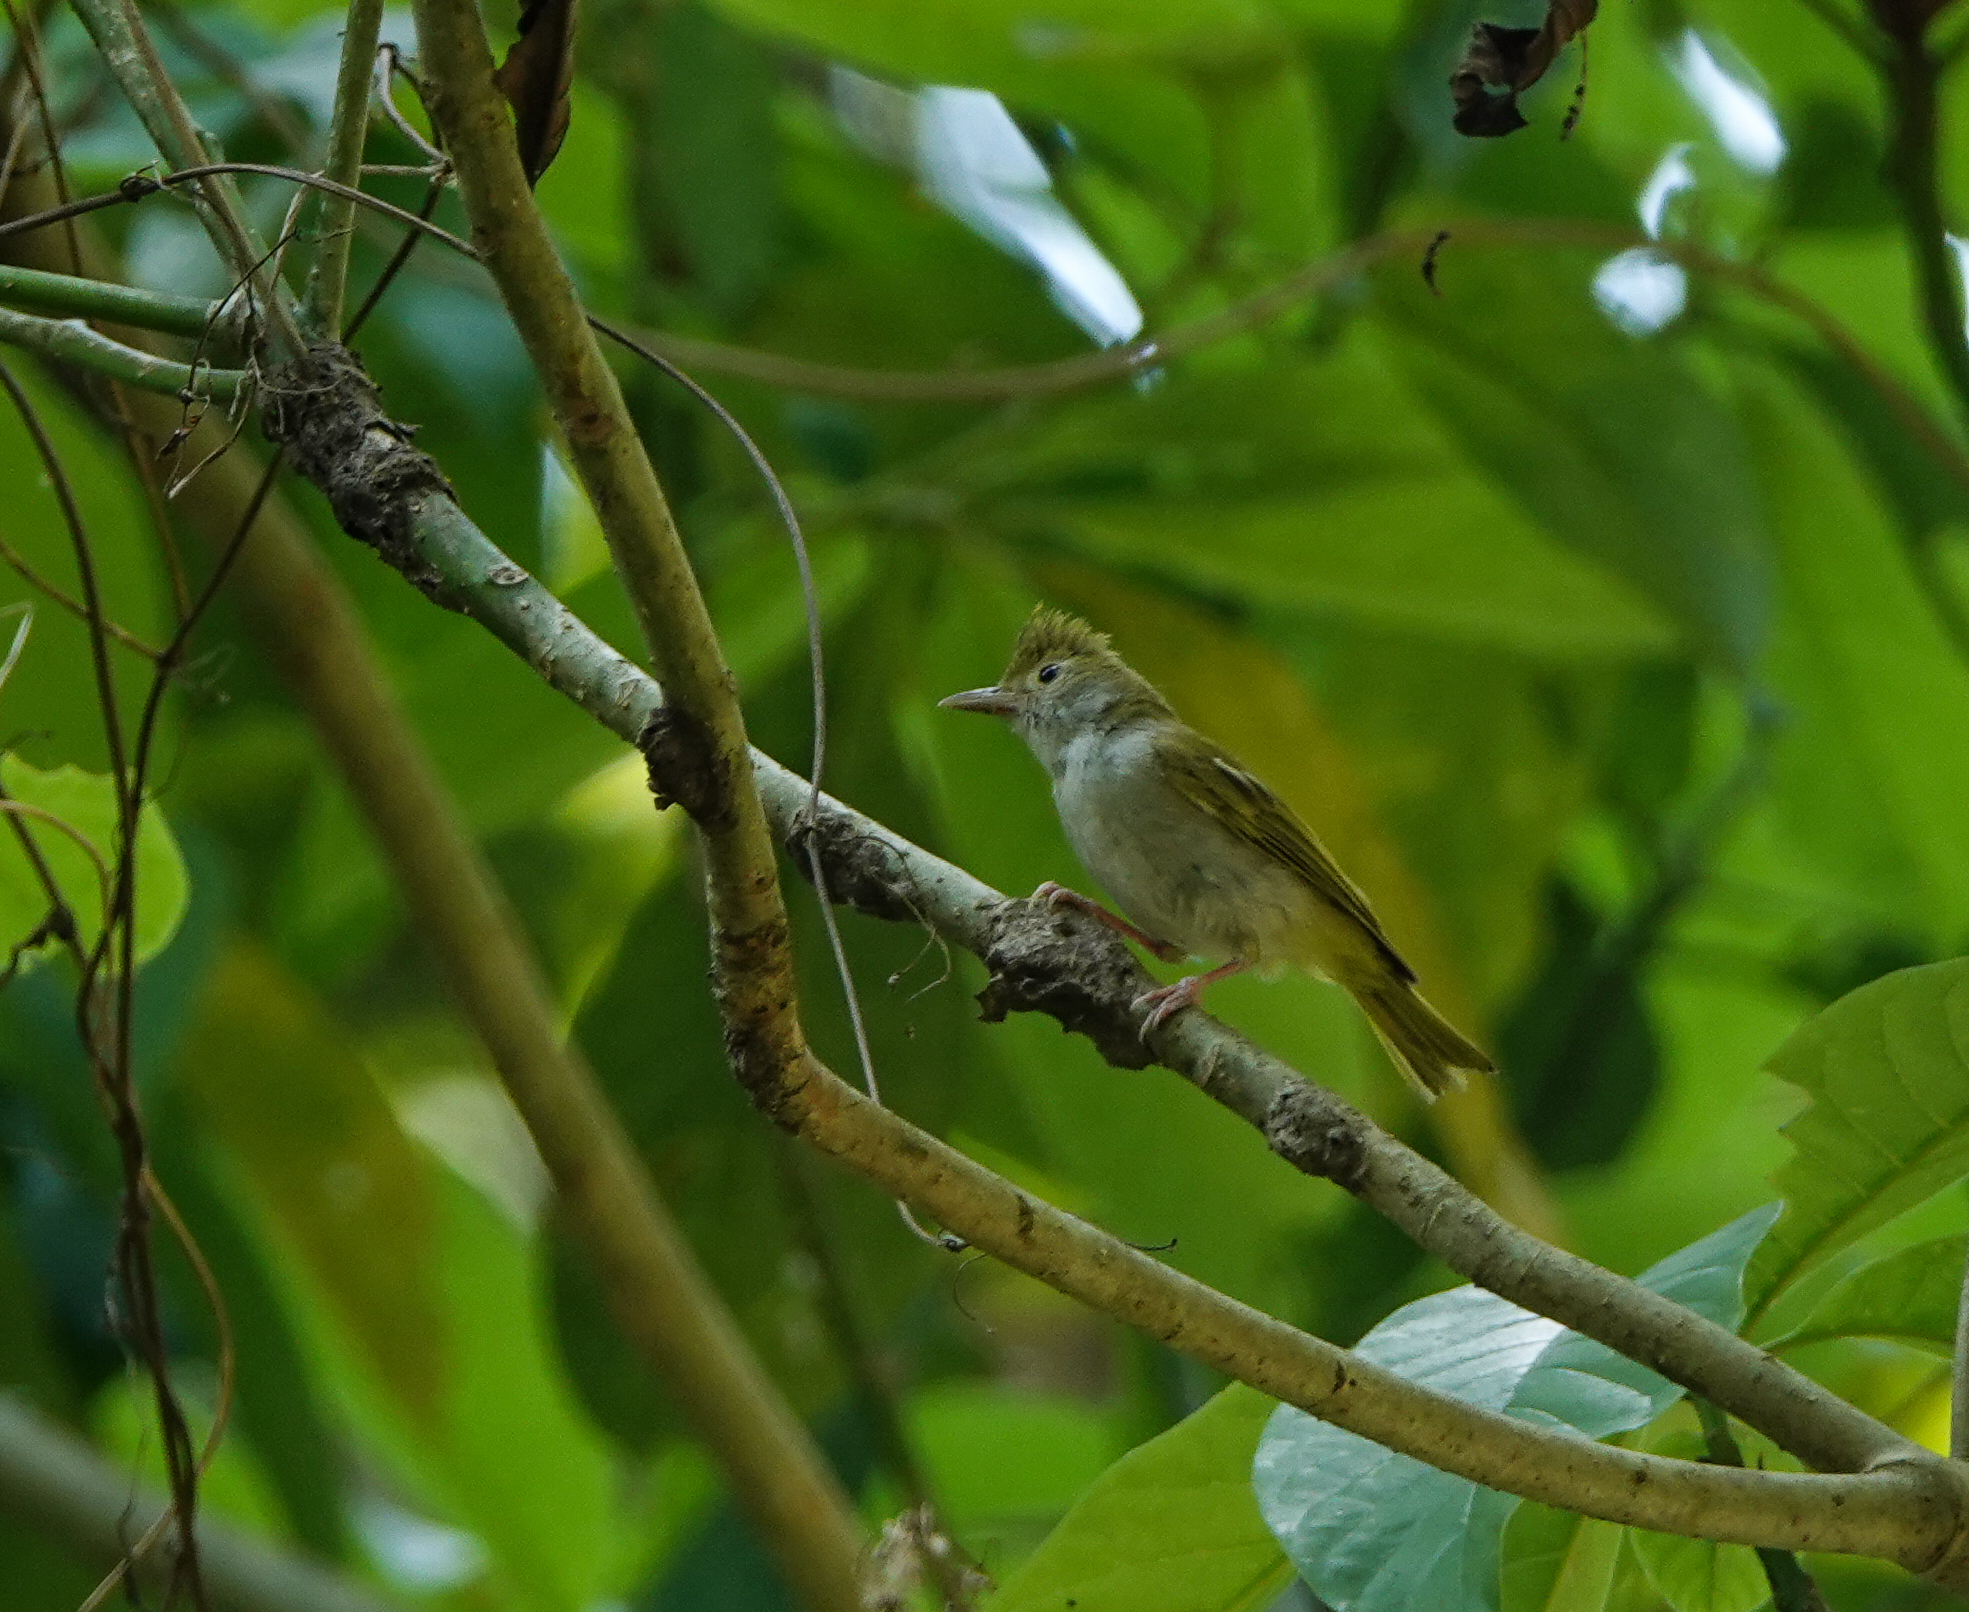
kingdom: Animalia
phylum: Chordata
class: Aves
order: Passeriformes
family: Vireonidae
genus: Erpornis
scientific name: Erpornis zantholeuca
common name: White-bellied erpornis
